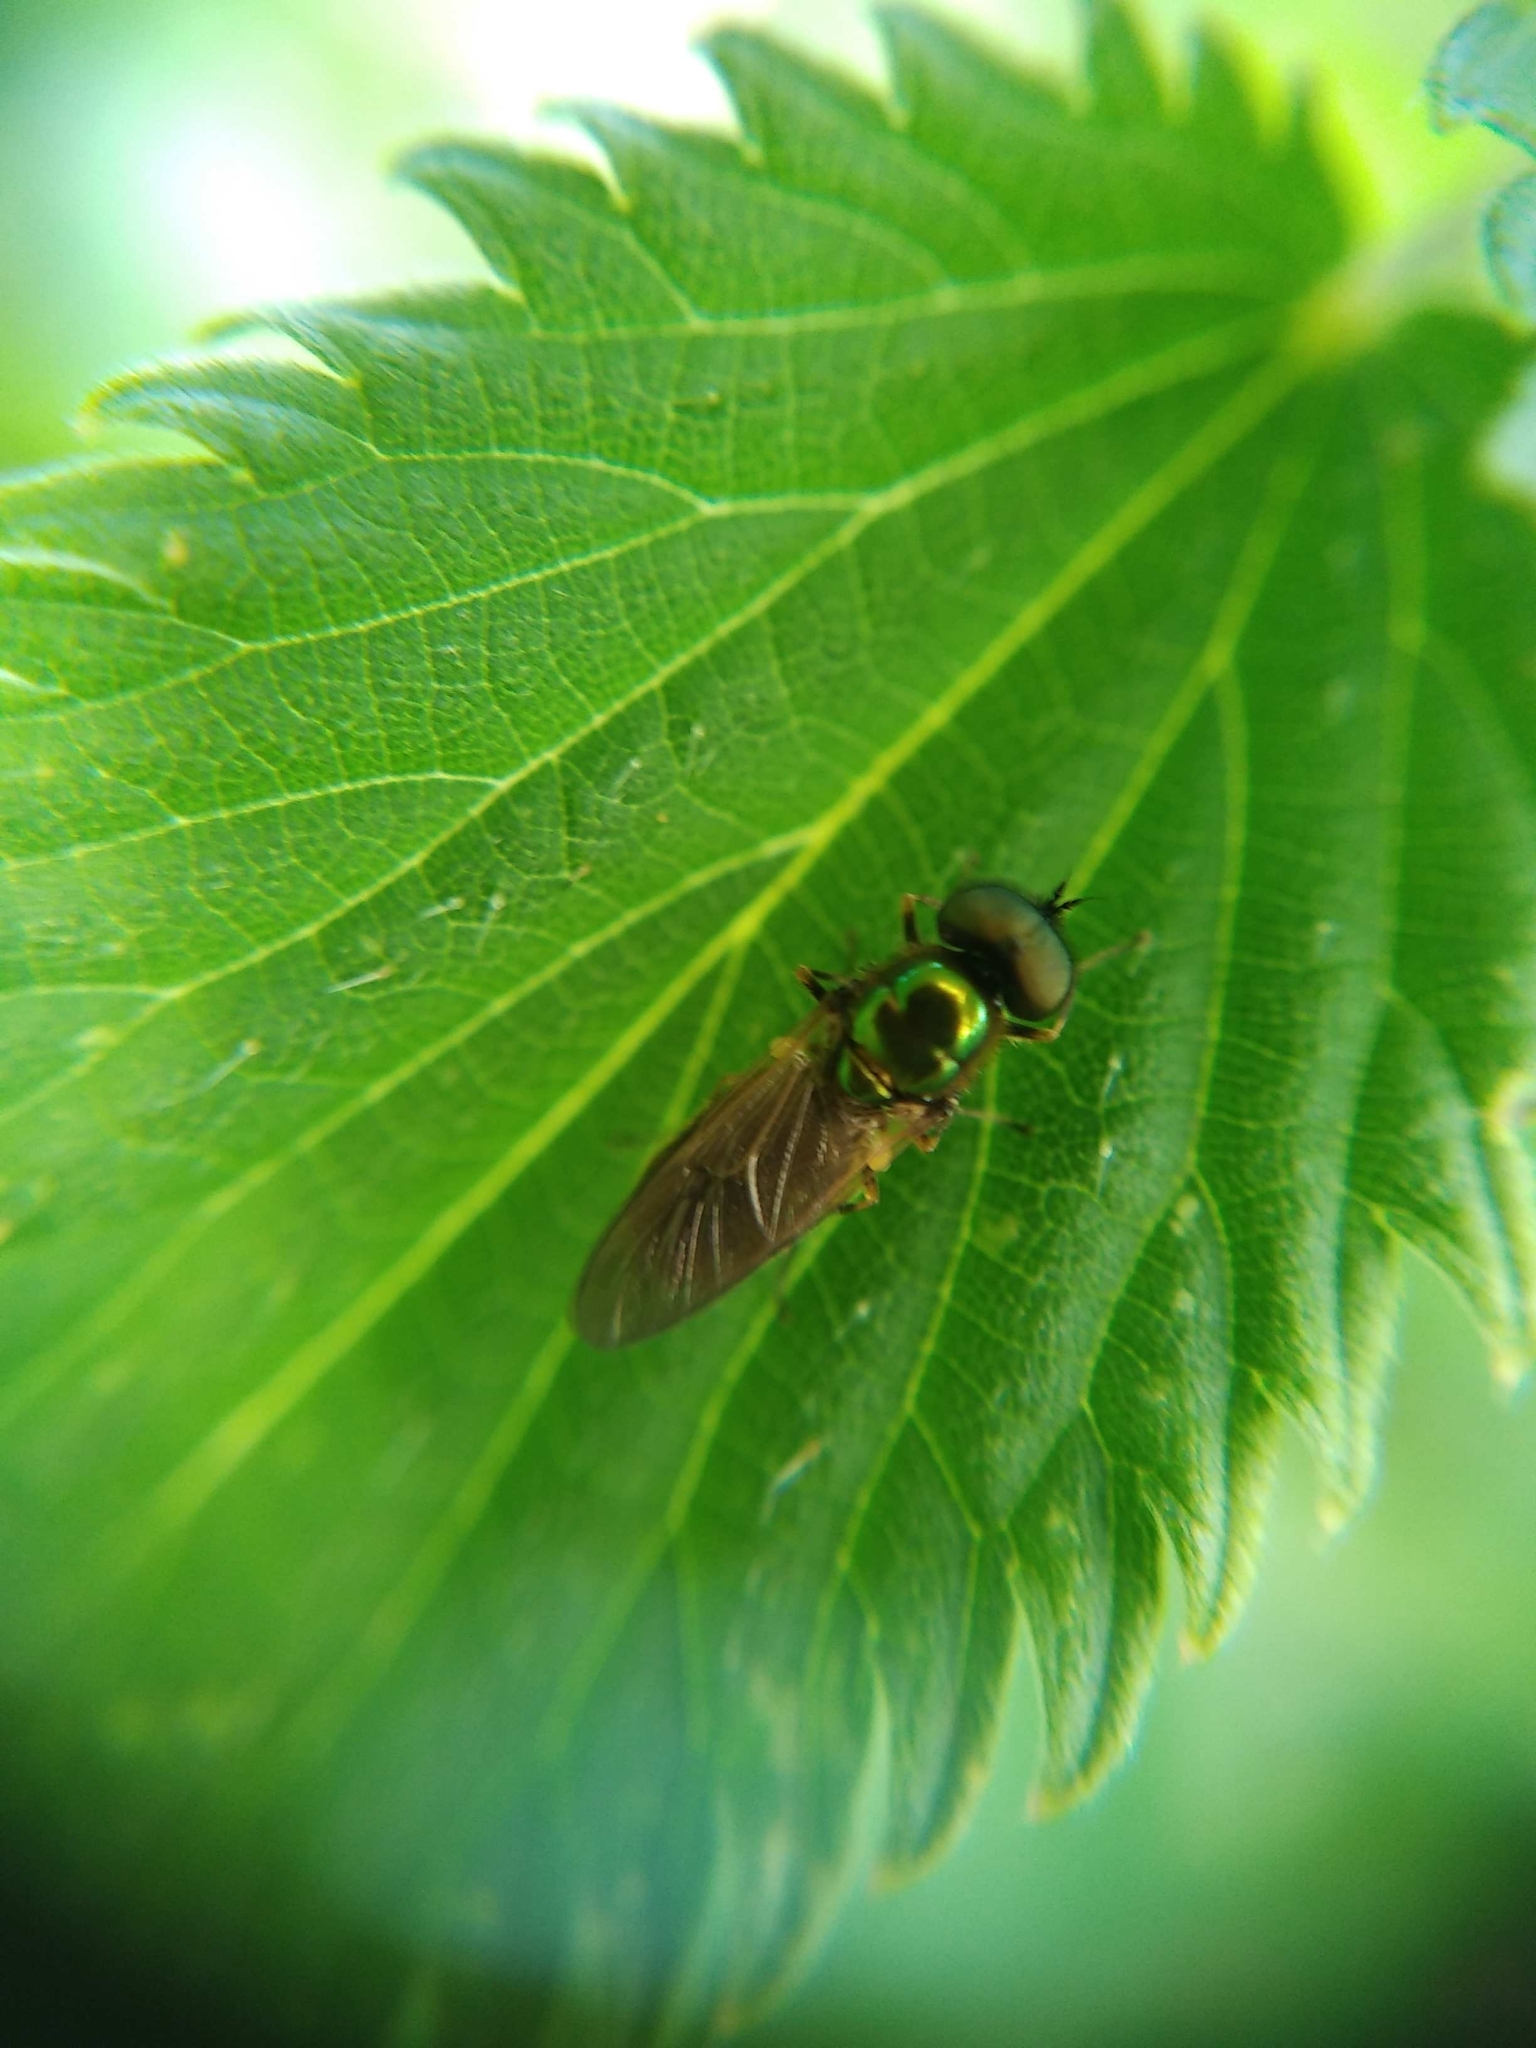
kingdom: Animalia
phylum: Arthropoda
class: Insecta
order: Diptera
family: Stratiomyidae
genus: Chloromyia
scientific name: Chloromyia formosa
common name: Soldier fly
